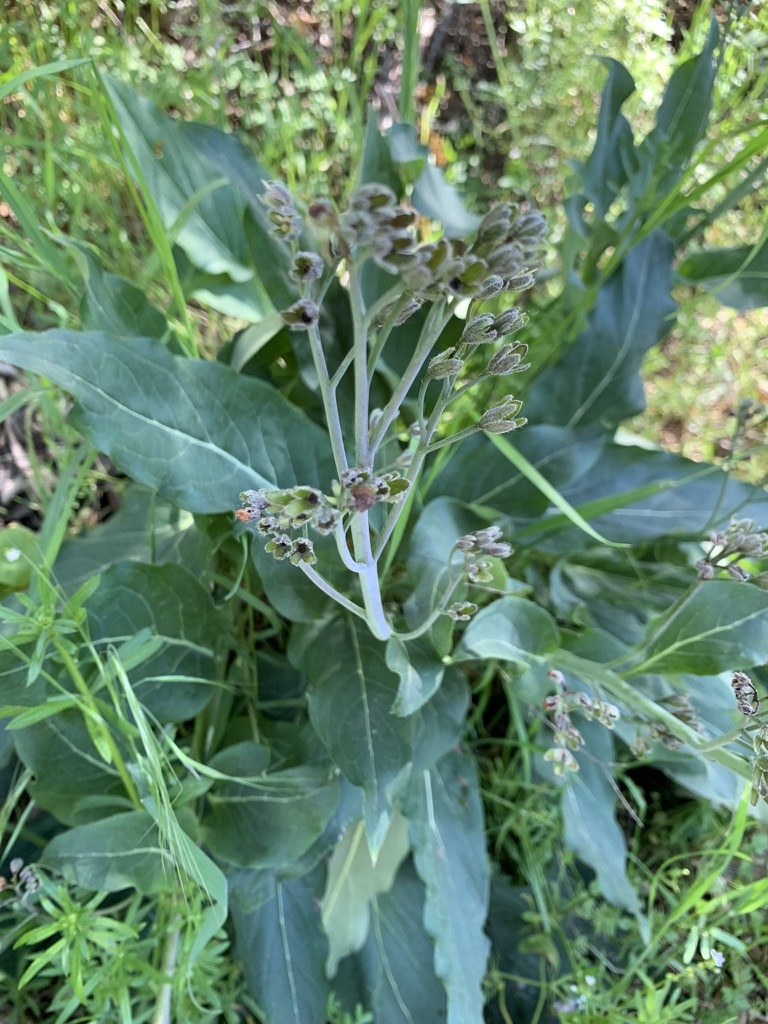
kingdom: Plantae
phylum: Tracheophyta
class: Magnoliopsida
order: Boraginales
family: Boraginaceae
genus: Adelinia
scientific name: Adelinia grande
